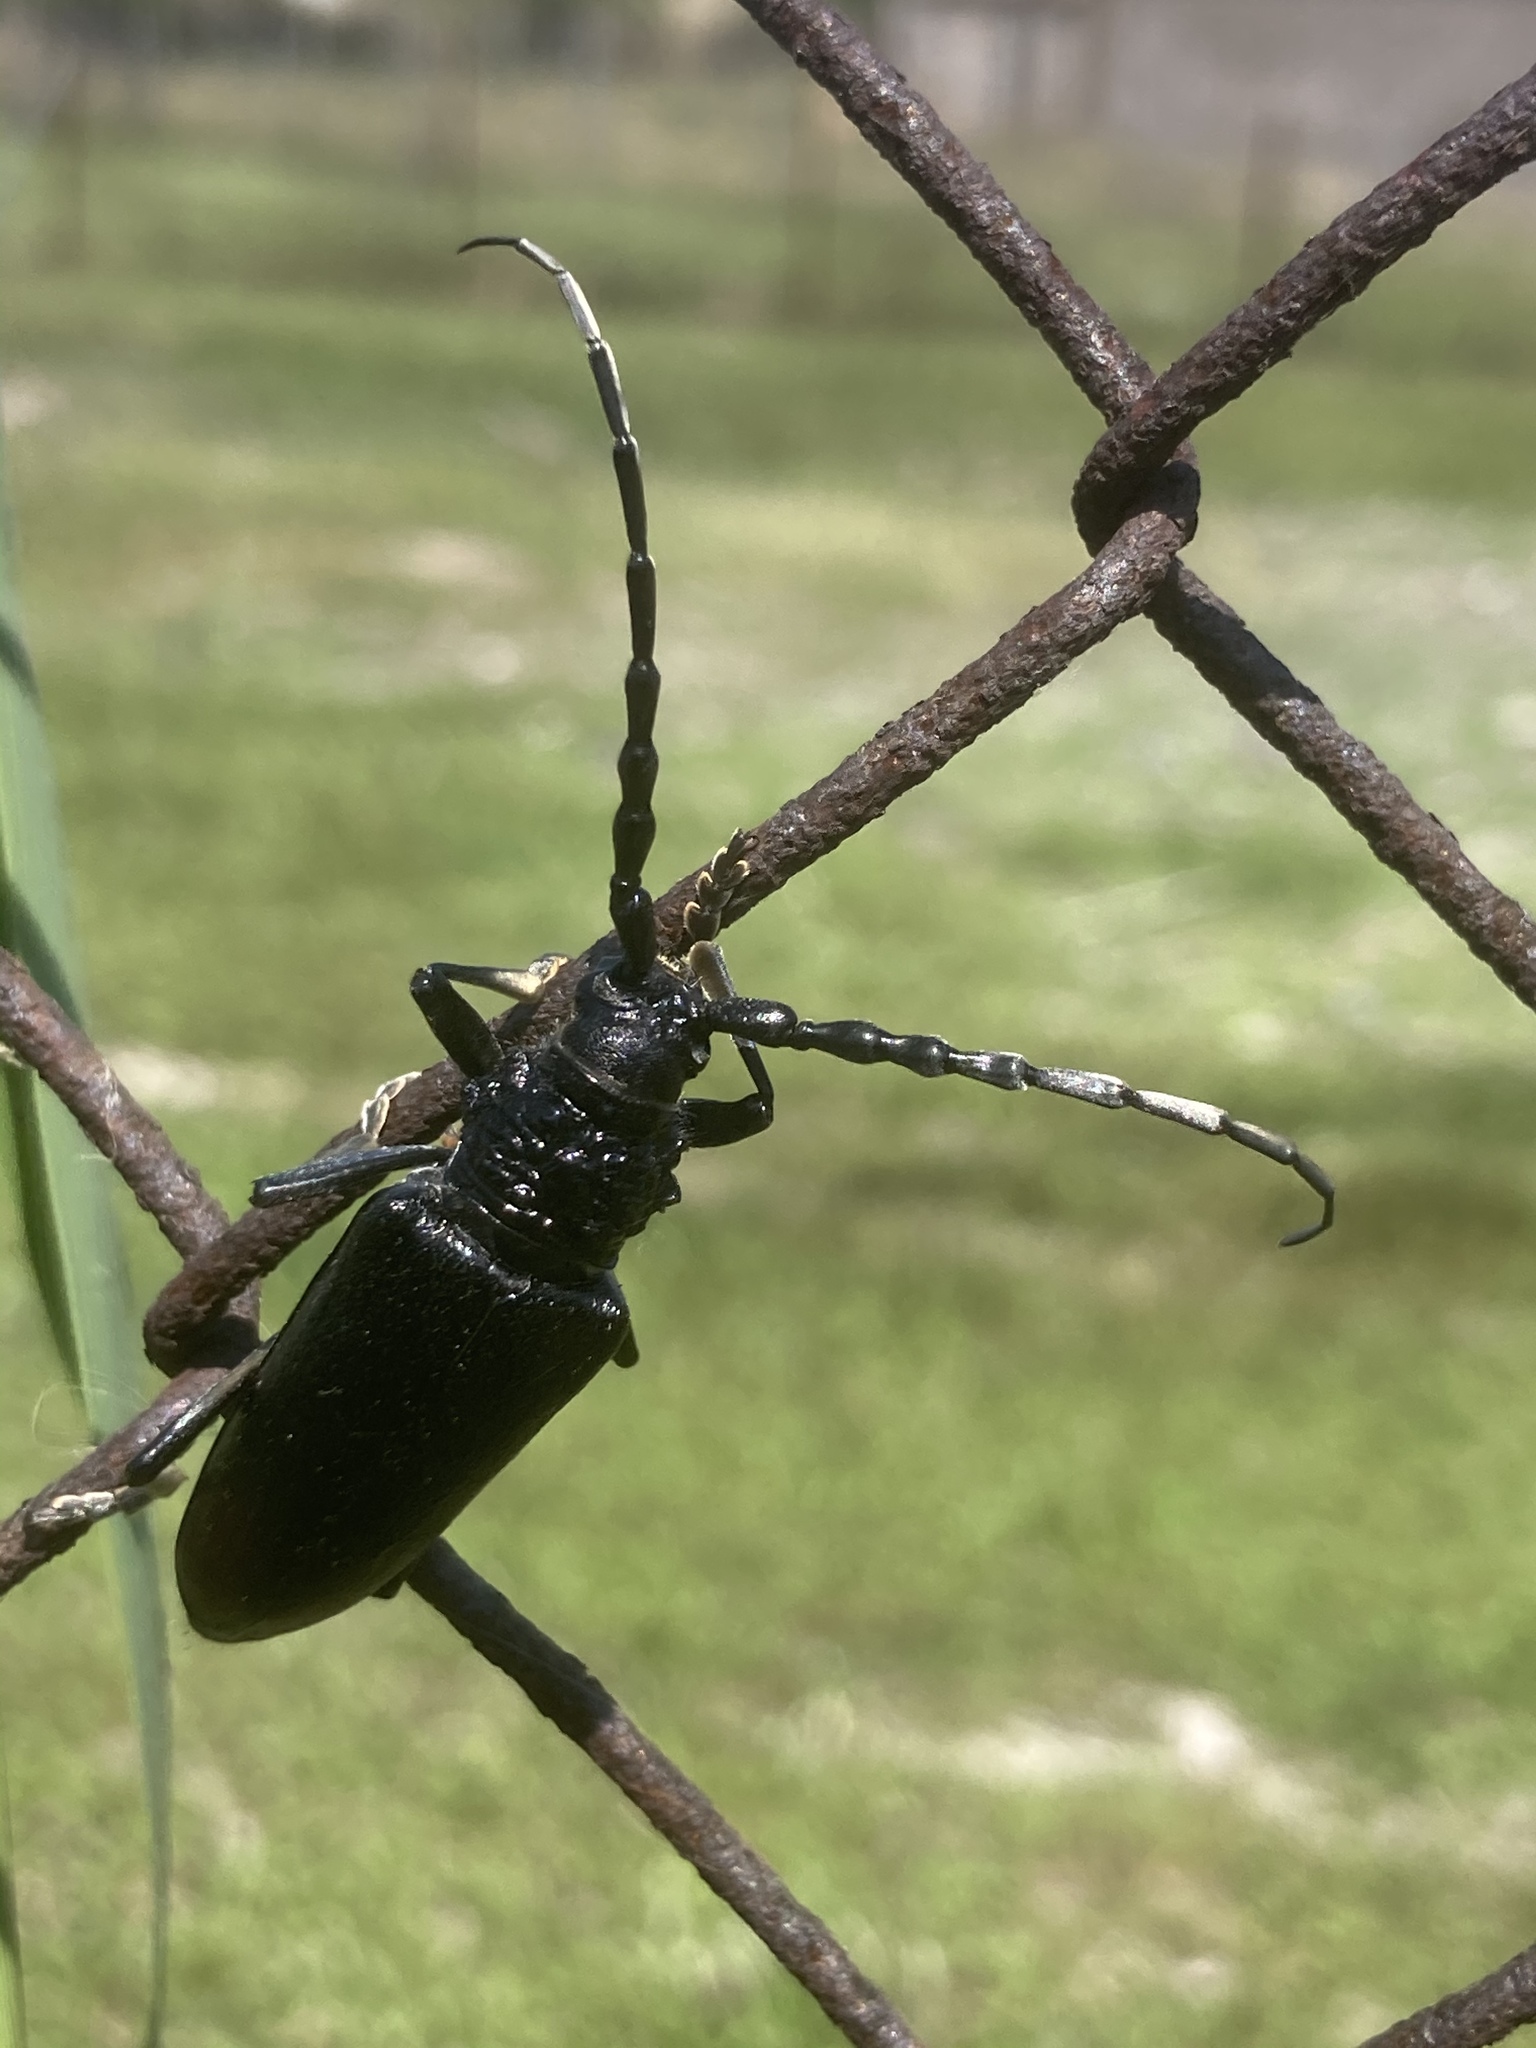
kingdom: Animalia
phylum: Arthropoda
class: Insecta
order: Coleoptera
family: Cerambycidae
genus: Cerambyx
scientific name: Cerambyx miles
